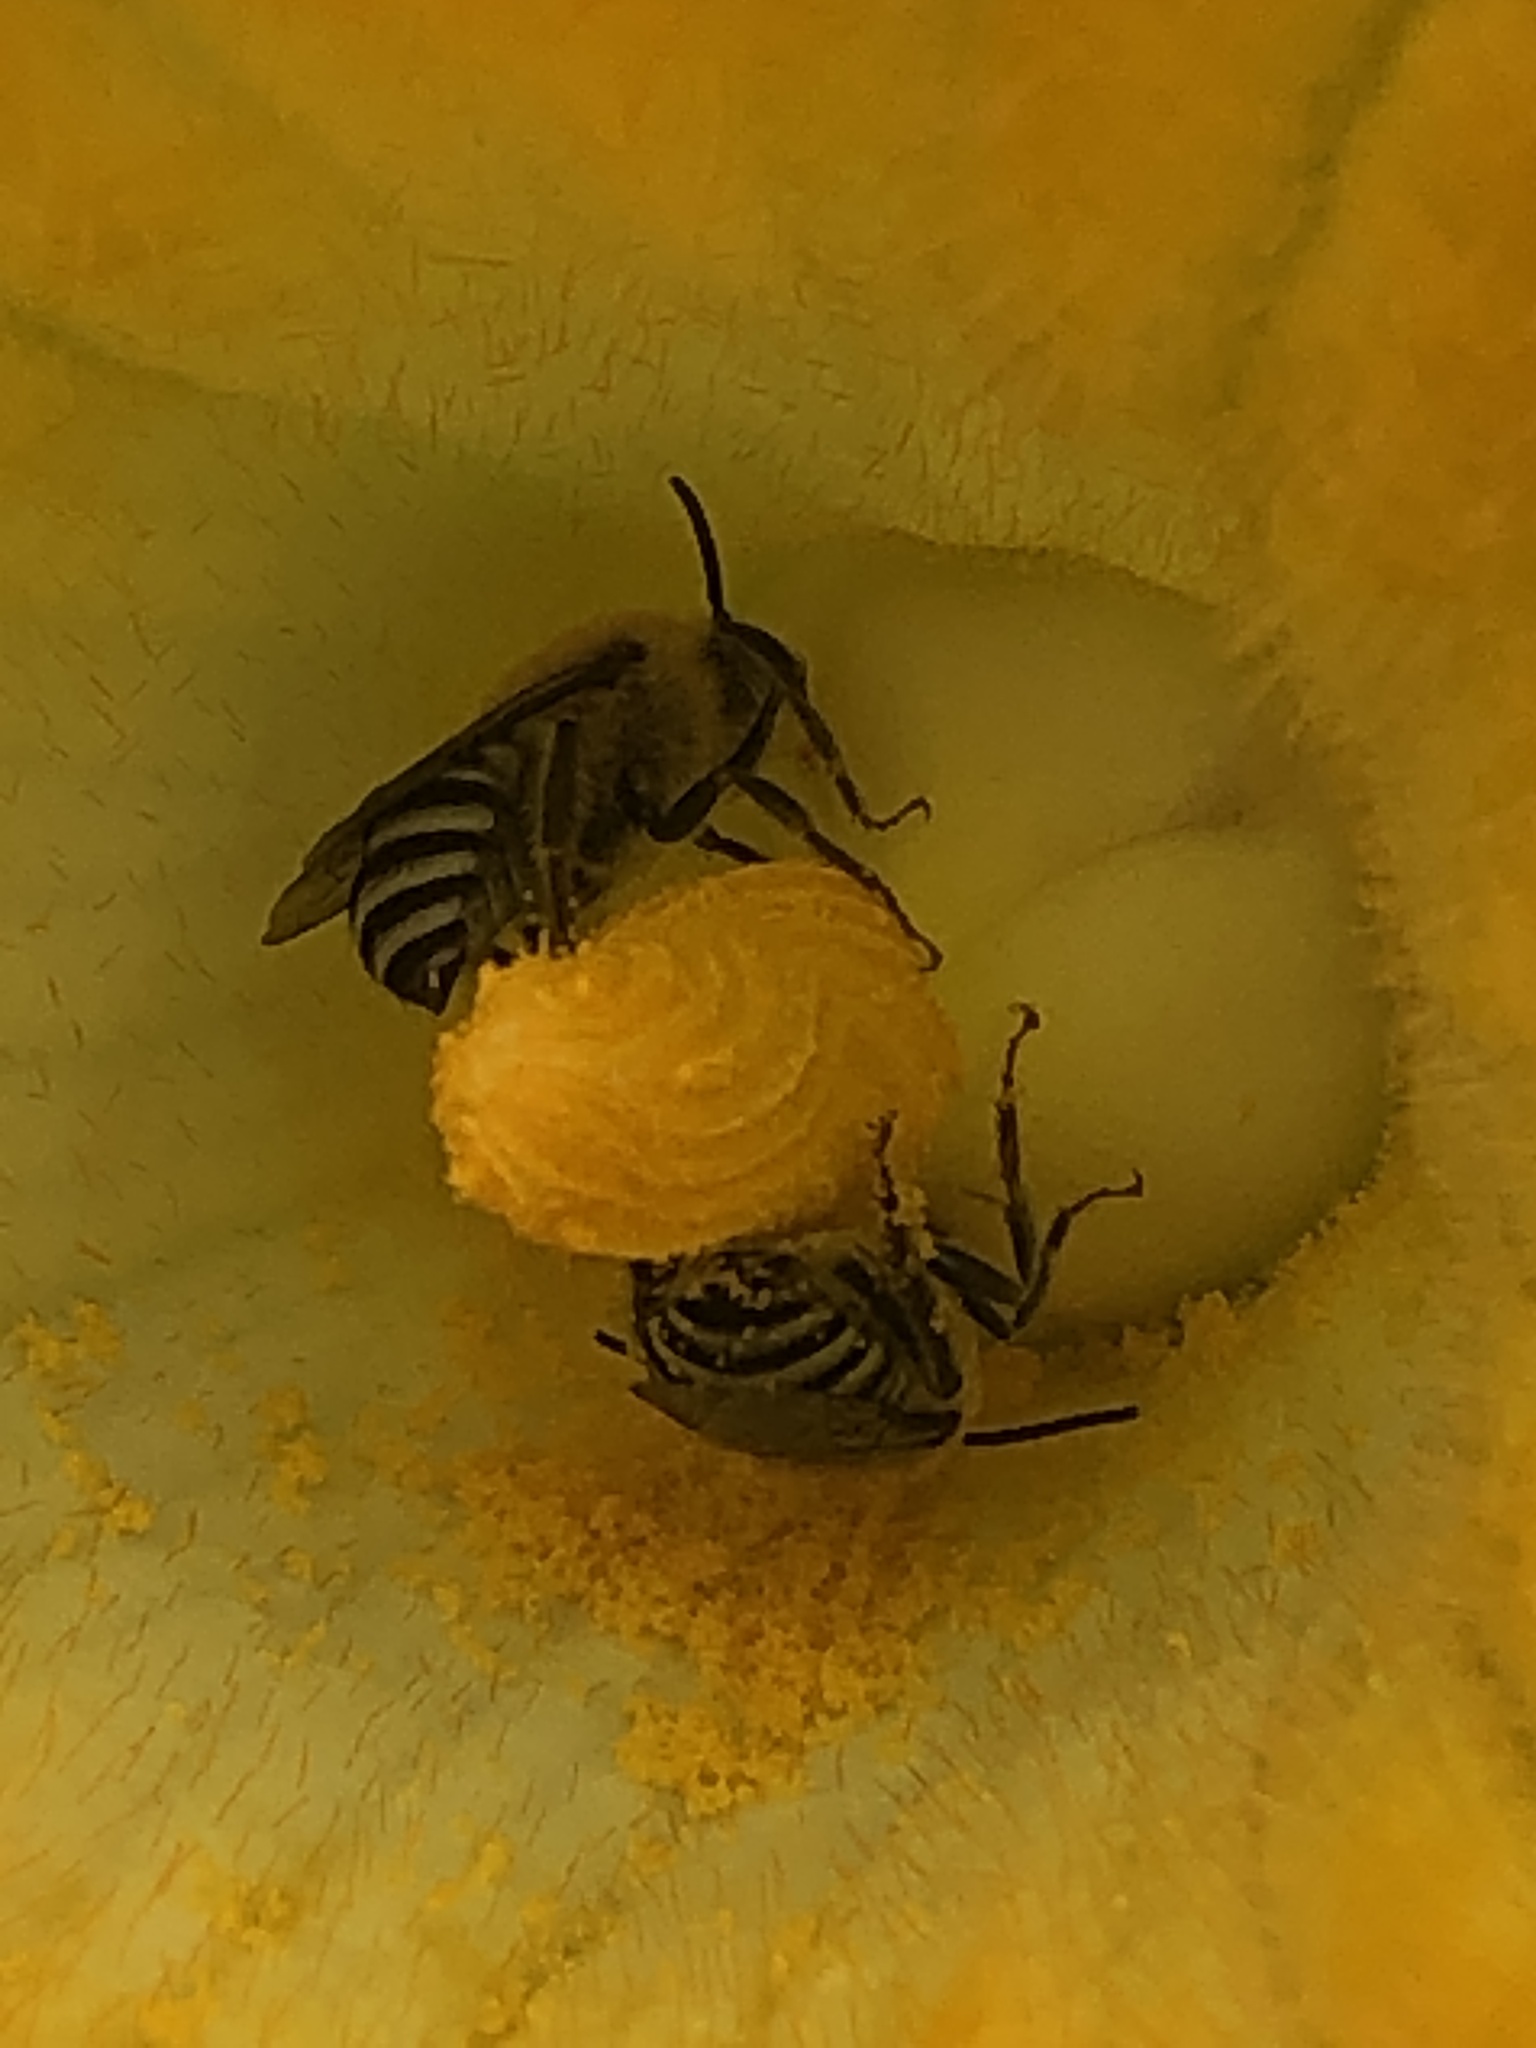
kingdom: Animalia
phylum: Arthropoda
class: Insecta
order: Hymenoptera
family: Apidae
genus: Peponapis
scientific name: Peponapis pruinosa
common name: Pruinose squash bee
